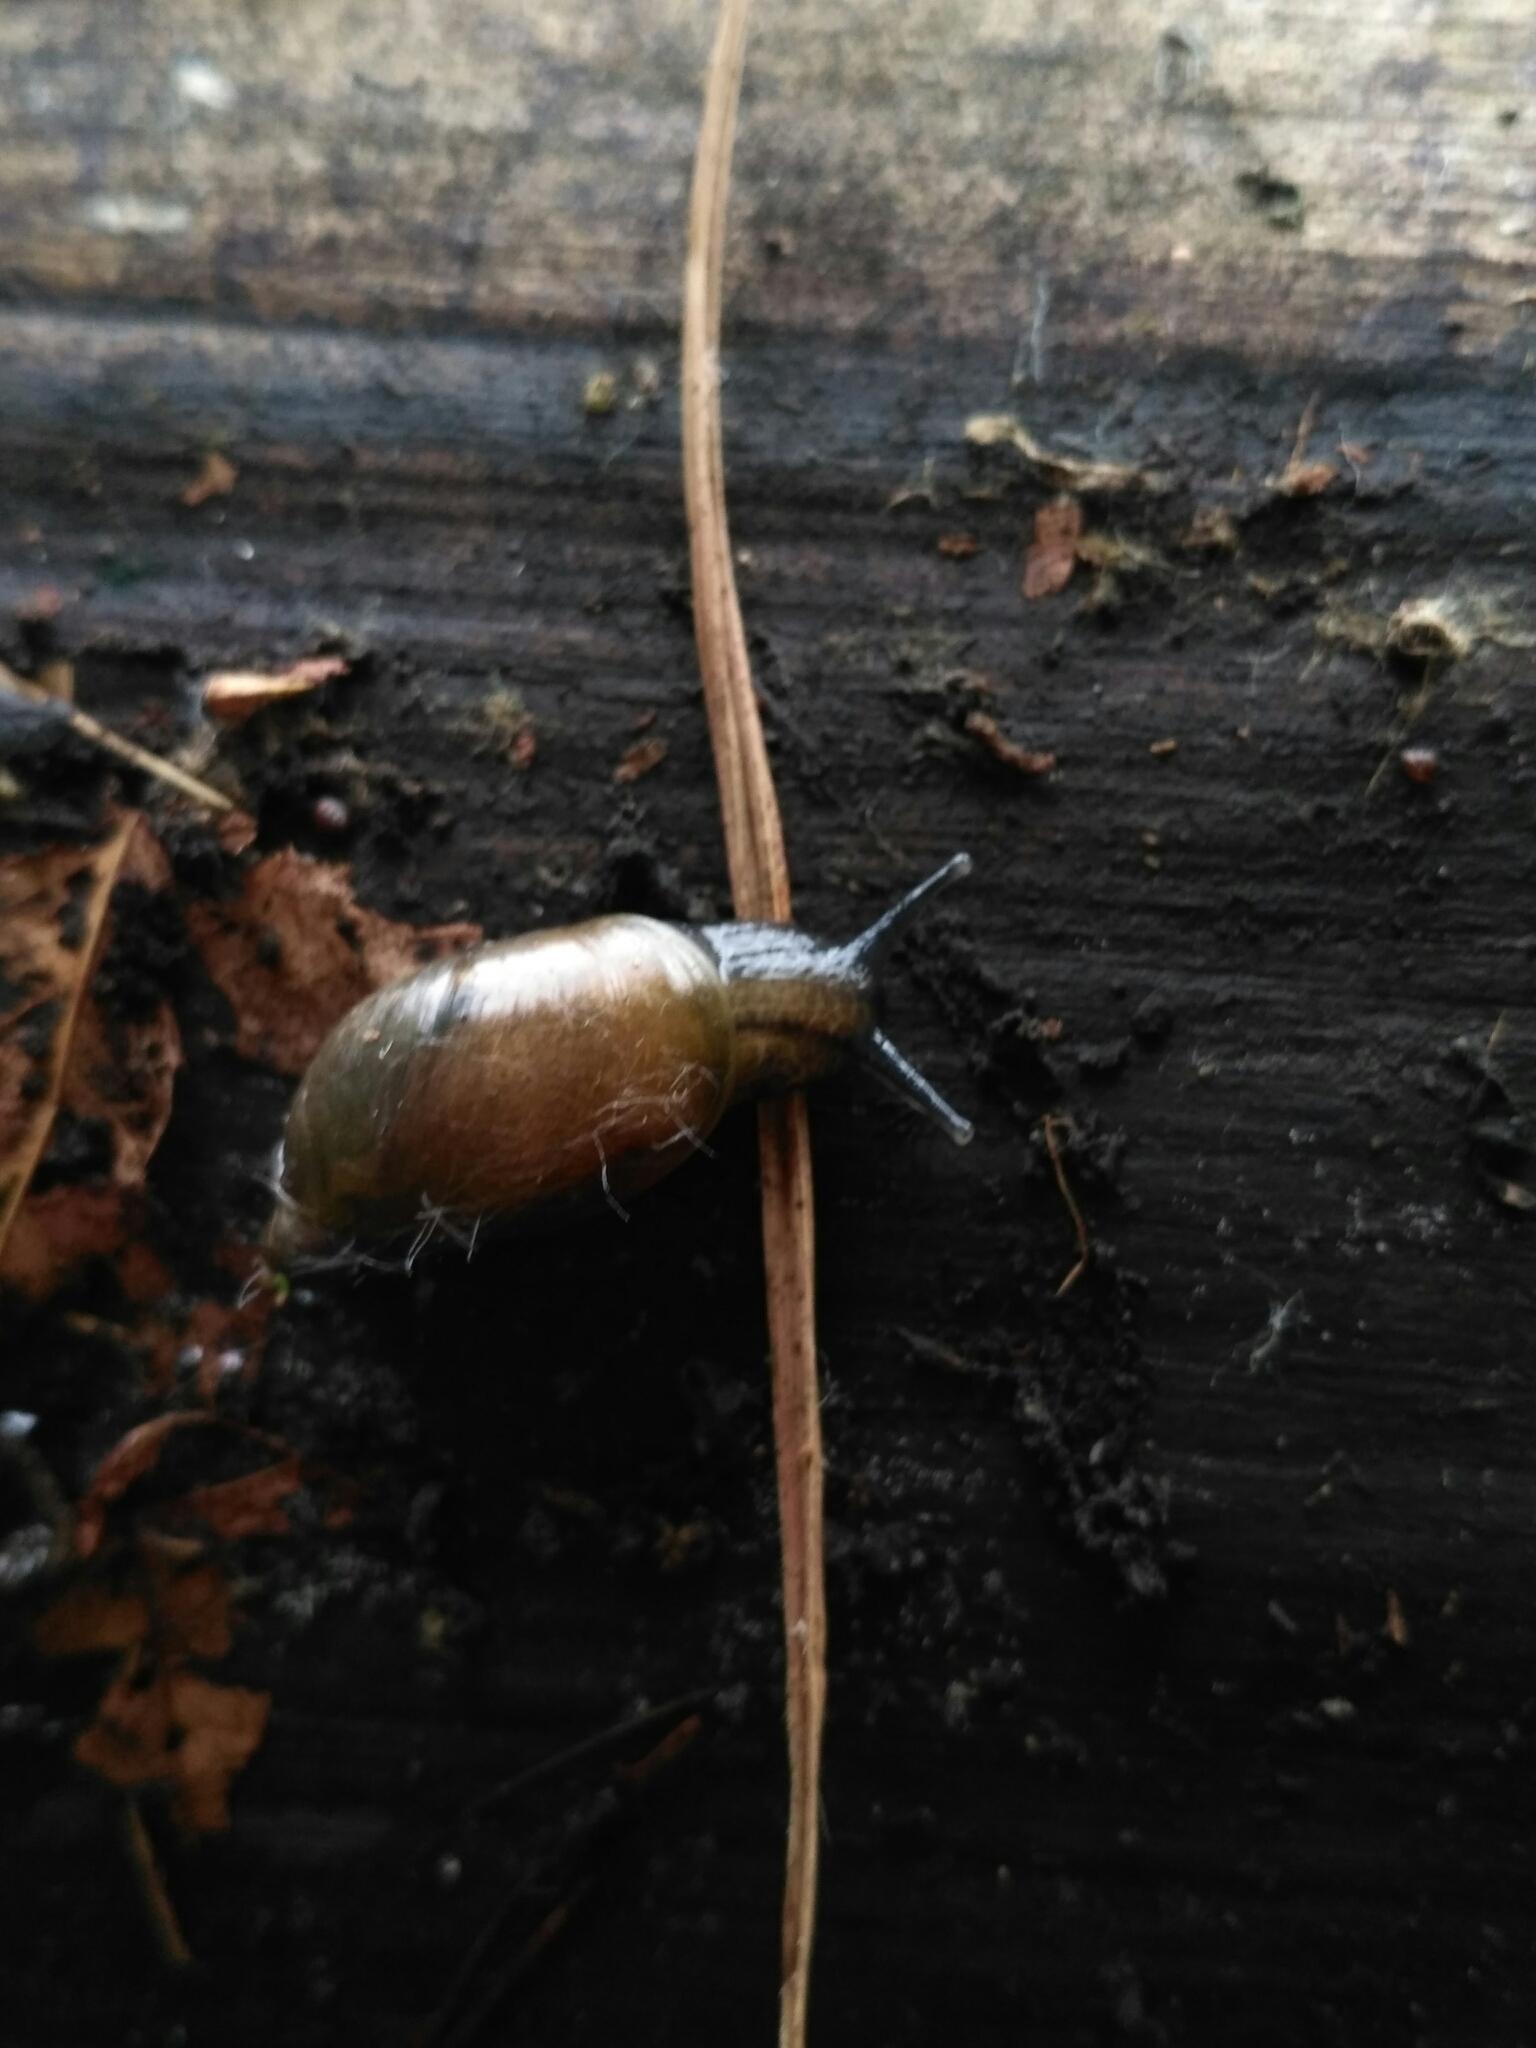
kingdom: Animalia
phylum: Mollusca
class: Gastropoda
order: Stylommatophora
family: Succineidae
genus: Succinea
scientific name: Succinea putris
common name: European ambersnail
